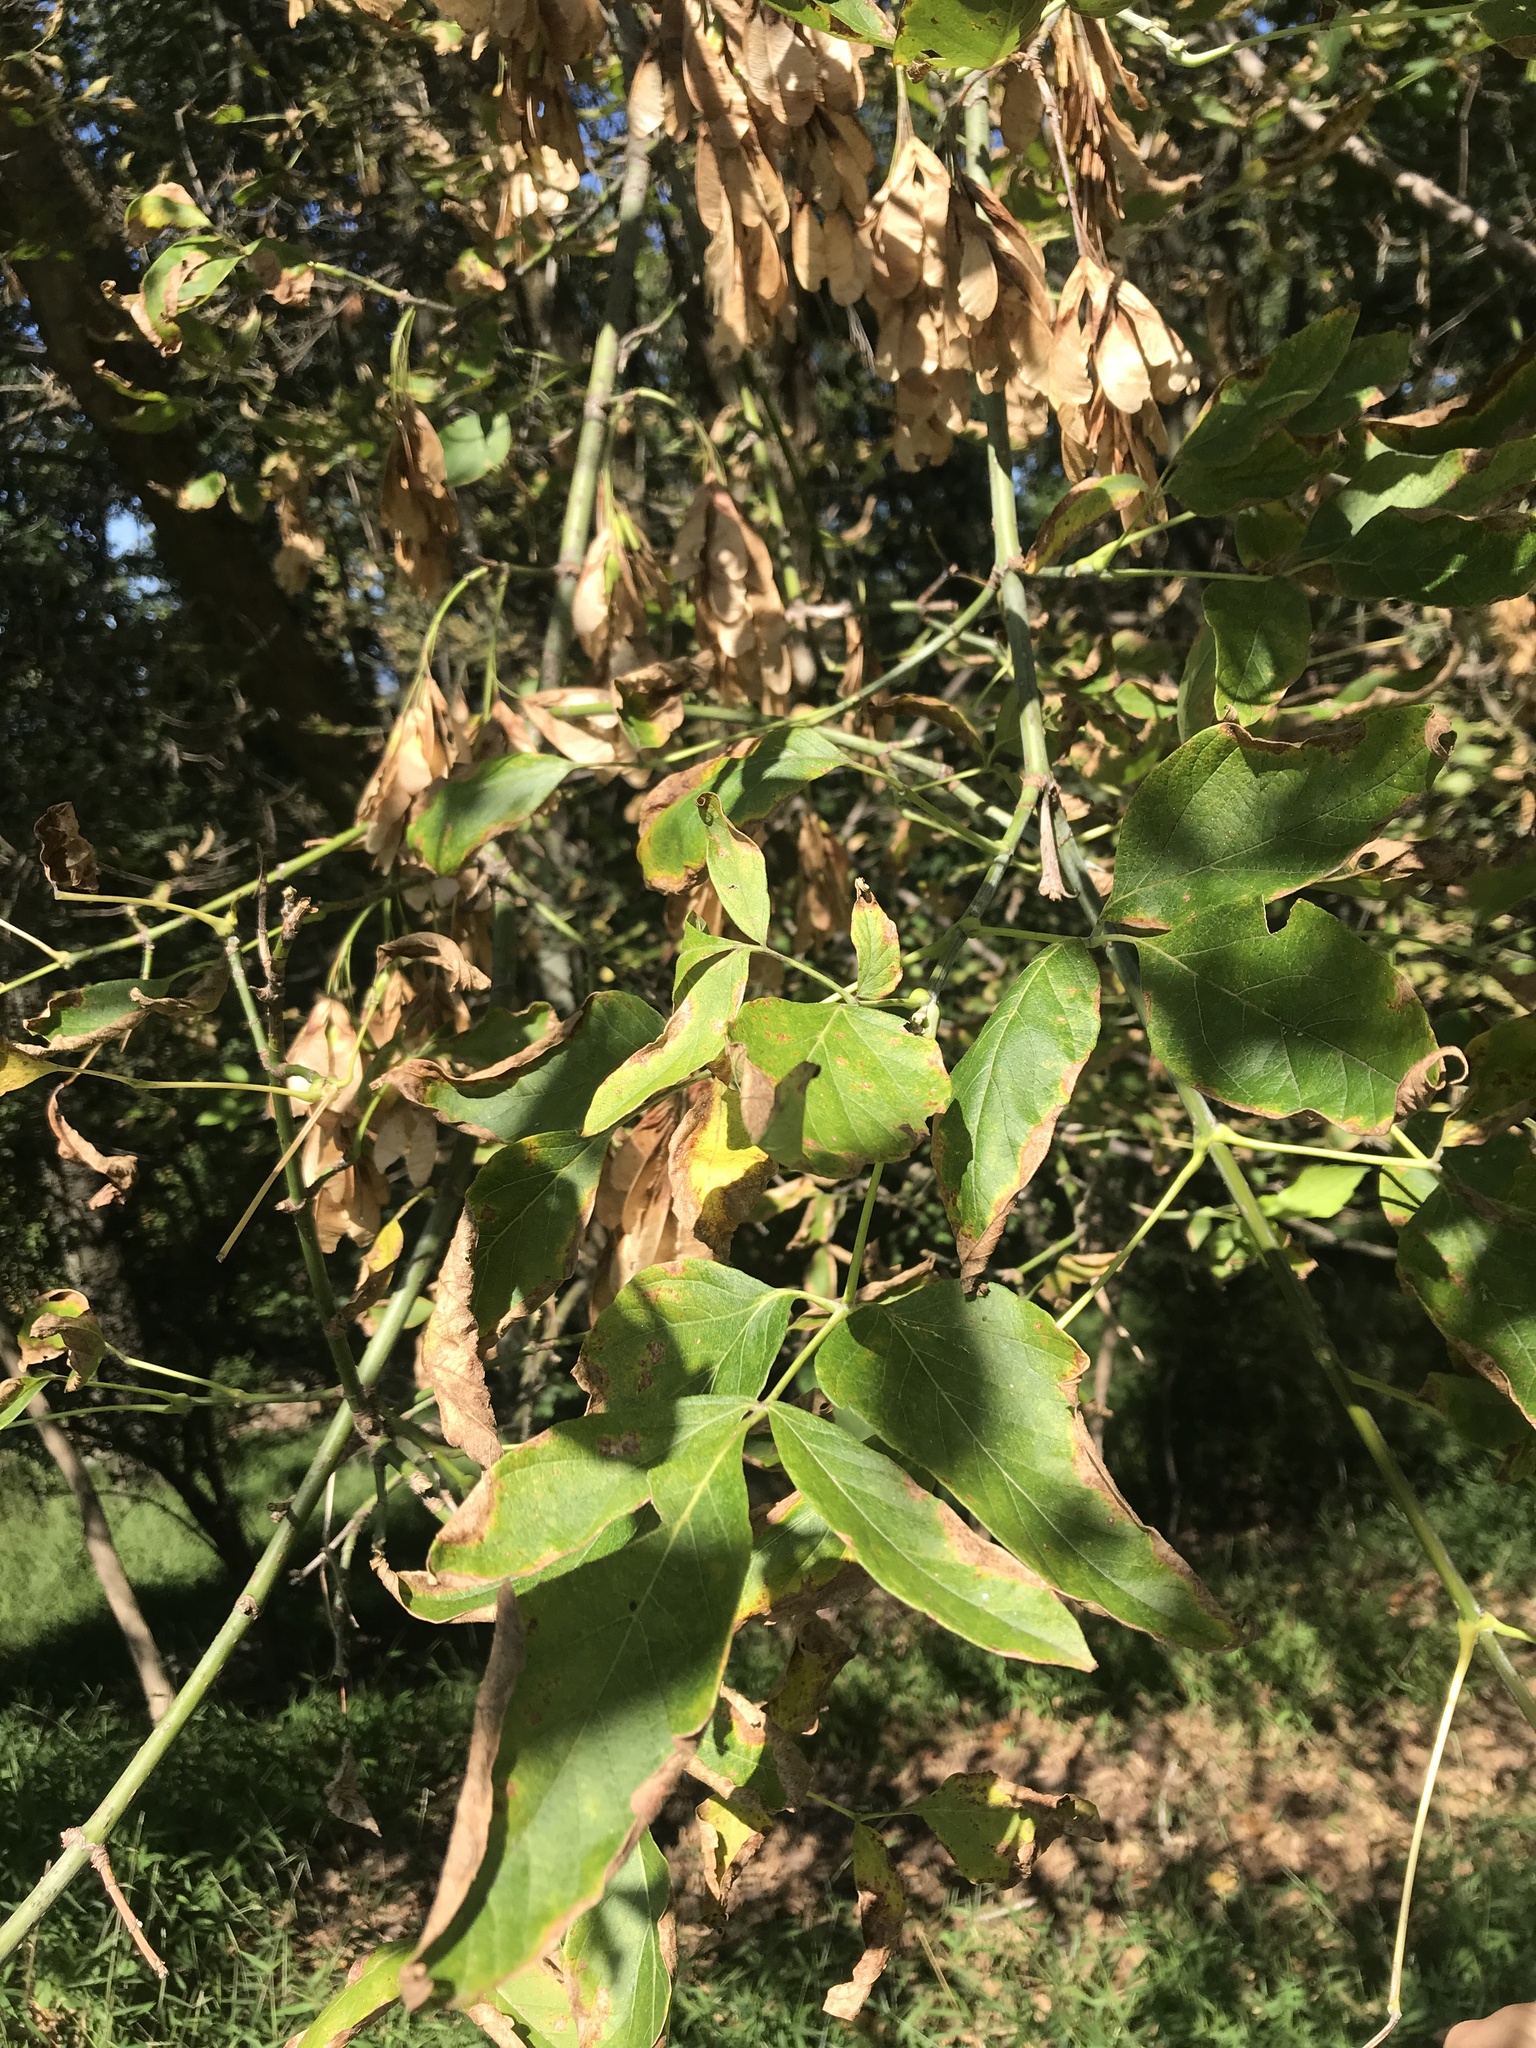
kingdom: Plantae
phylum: Tracheophyta
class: Magnoliopsida
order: Sapindales
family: Sapindaceae
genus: Acer
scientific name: Acer negundo
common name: Ashleaf maple
